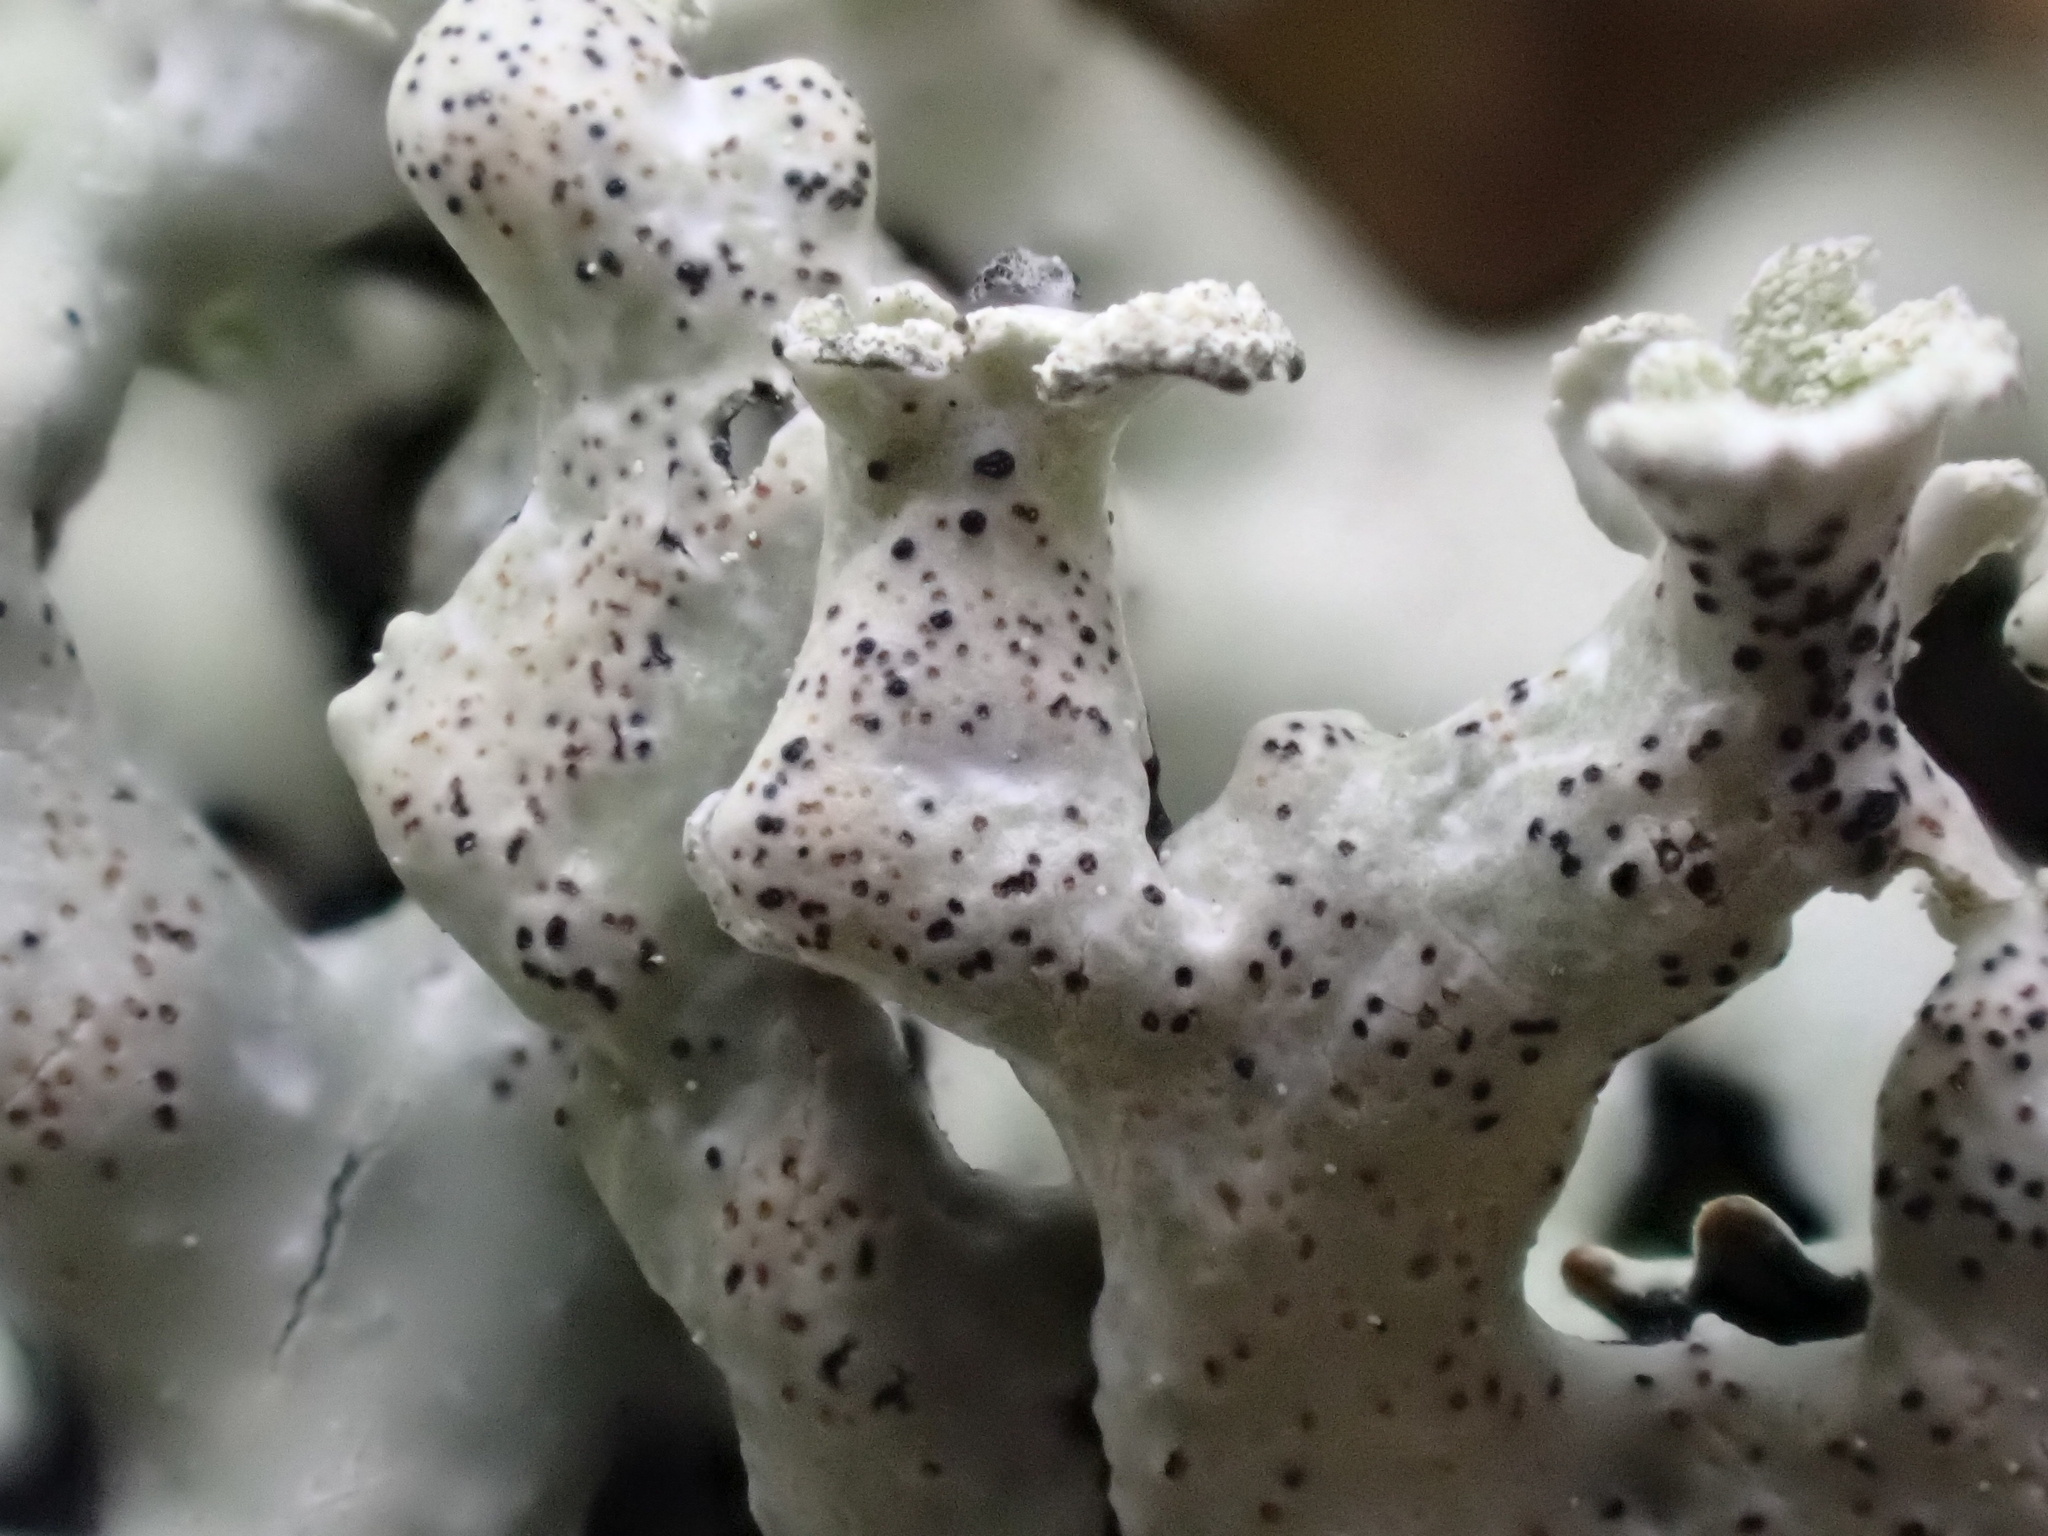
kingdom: Fungi
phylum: Ascomycota
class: Lecanoromycetes
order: Lecanorales
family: Parmeliaceae
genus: Hypogymnia
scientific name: Hypogymnia physodes
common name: Dark crottle
